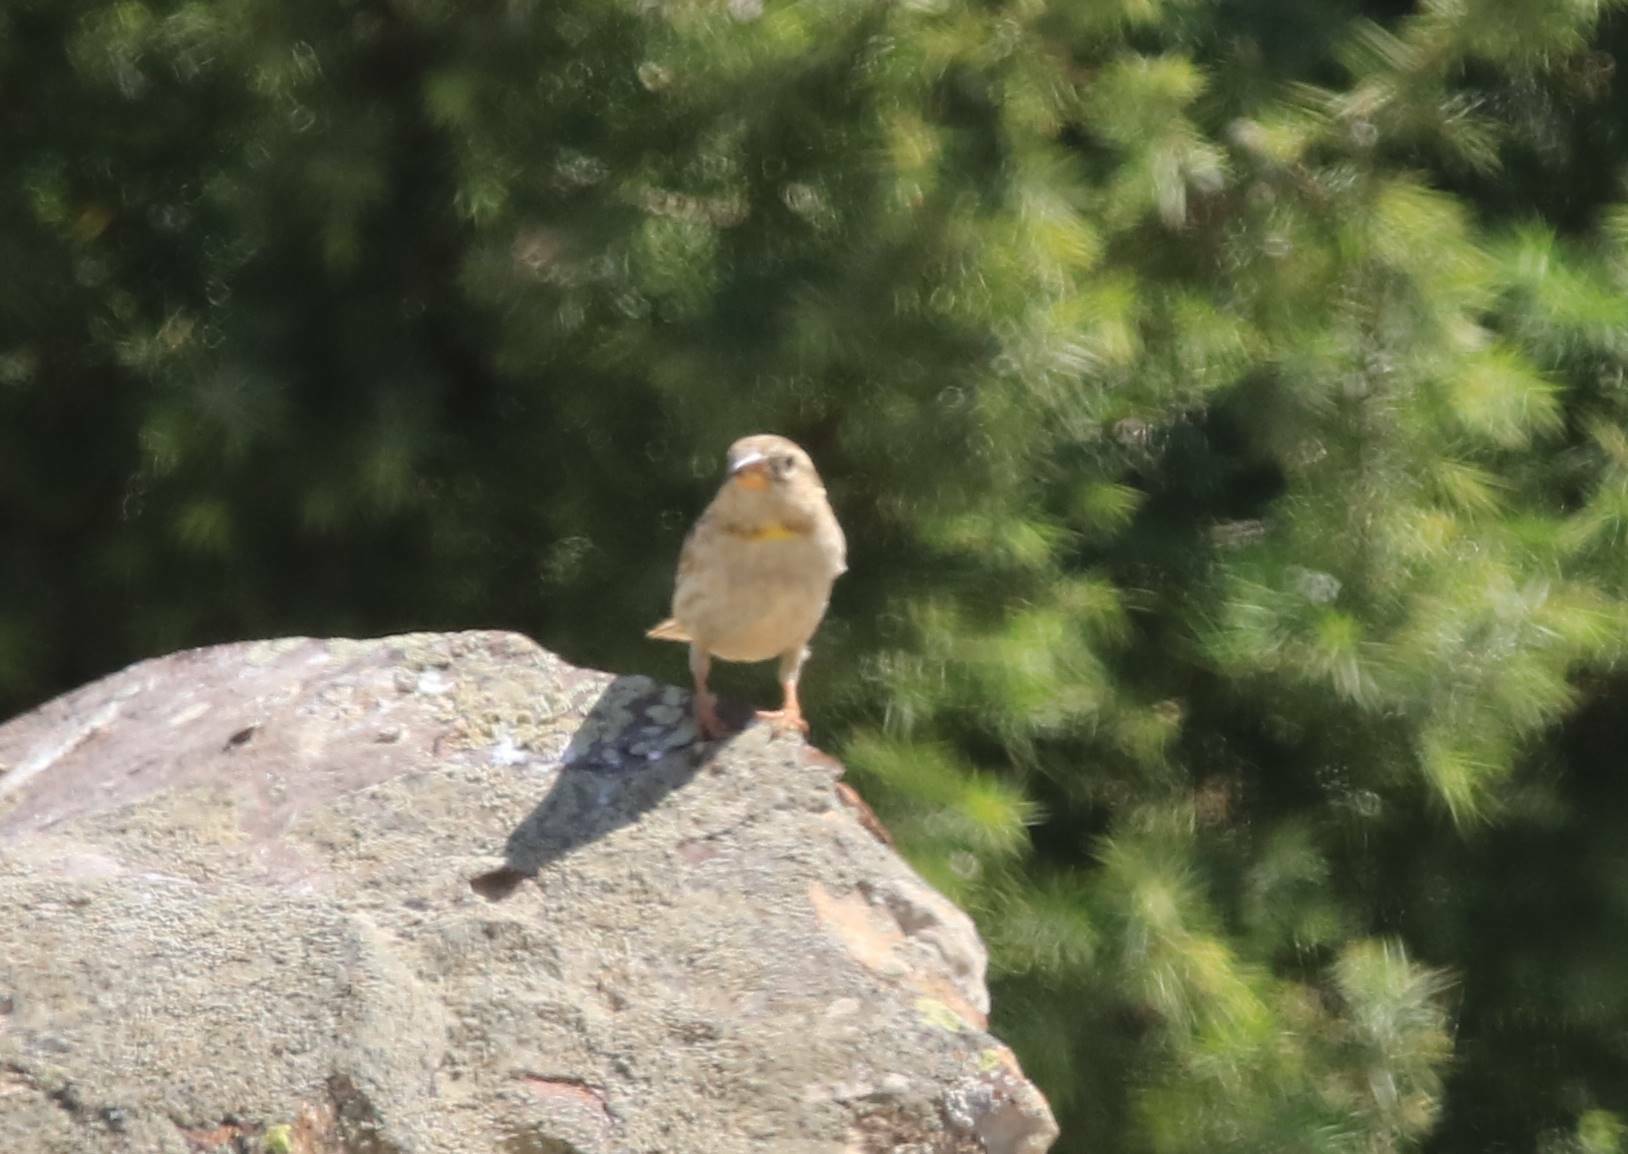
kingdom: Animalia
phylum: Chordata
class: Aves
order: Passeriformes
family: Motacillidae
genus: Anthus
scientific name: Anthus campestris
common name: Tawny pipit
